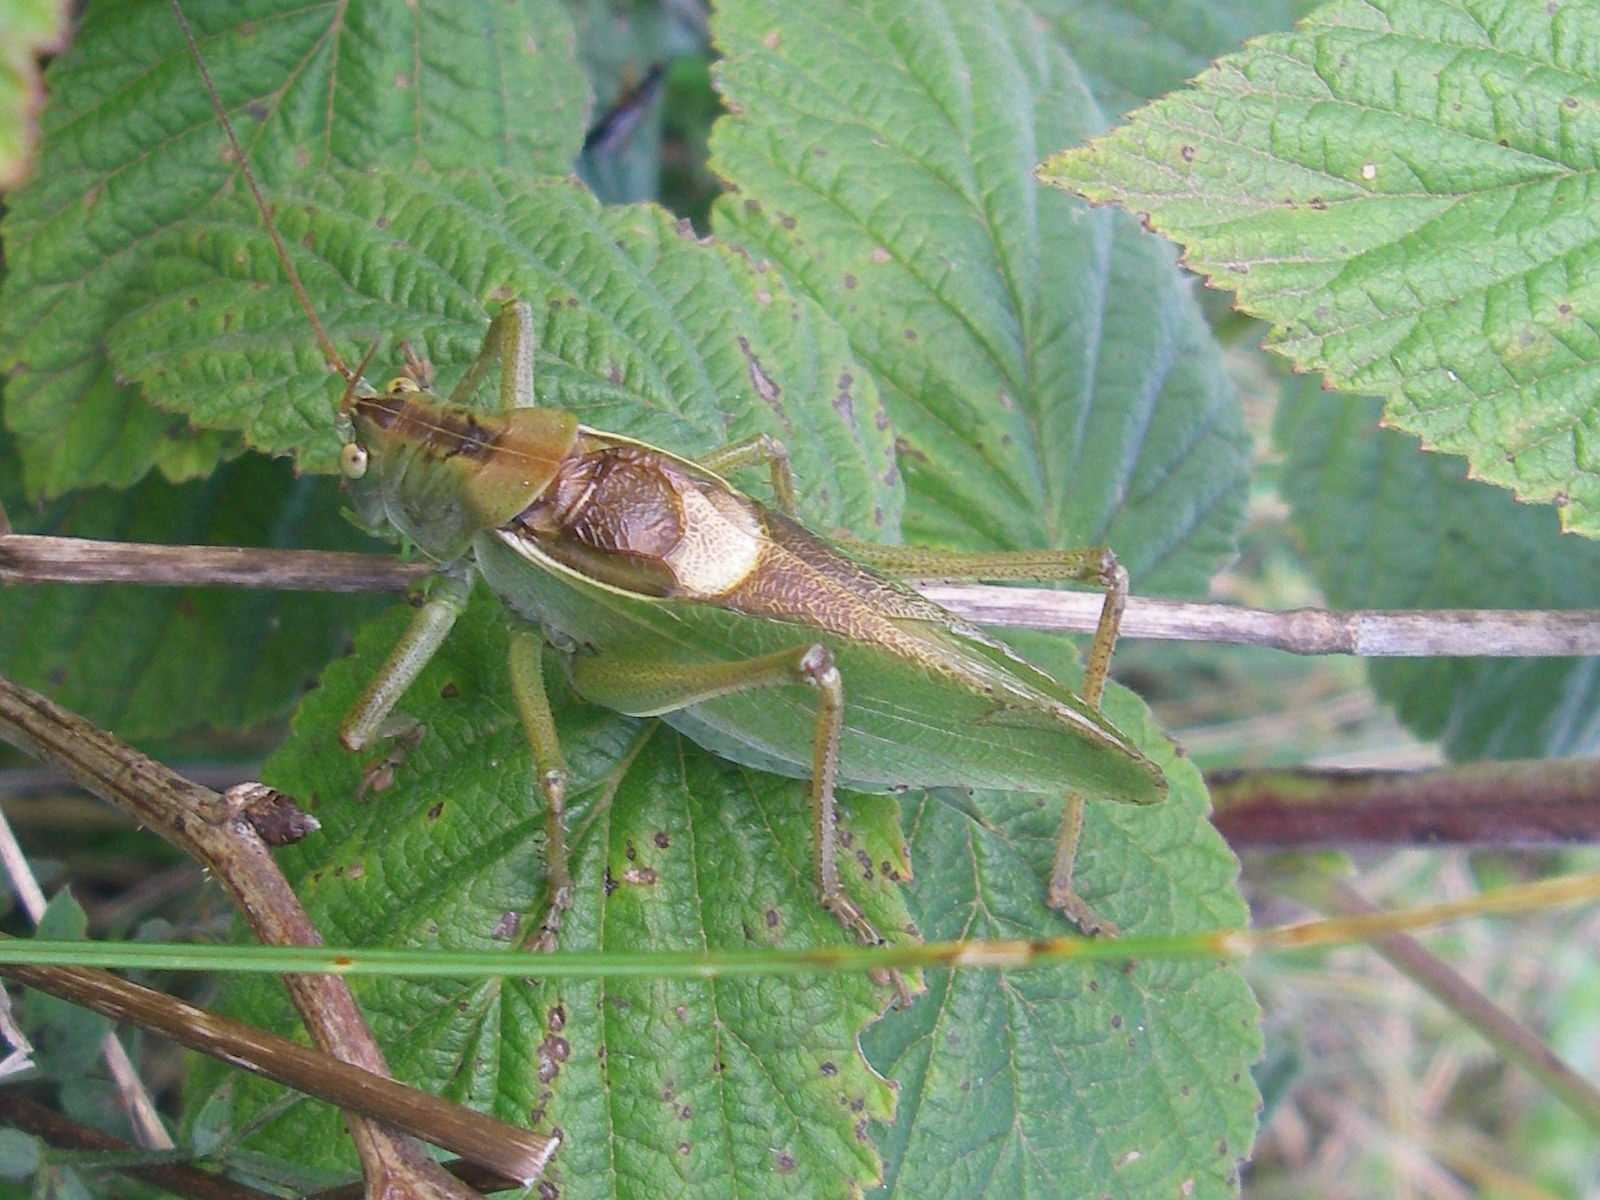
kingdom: Animalia
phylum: Arthropoda
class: Insecta
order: Orthoptera
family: Tettigoniidae
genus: Tettigonia
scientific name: Tettigonia cantans
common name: Upland green bush-cricket
